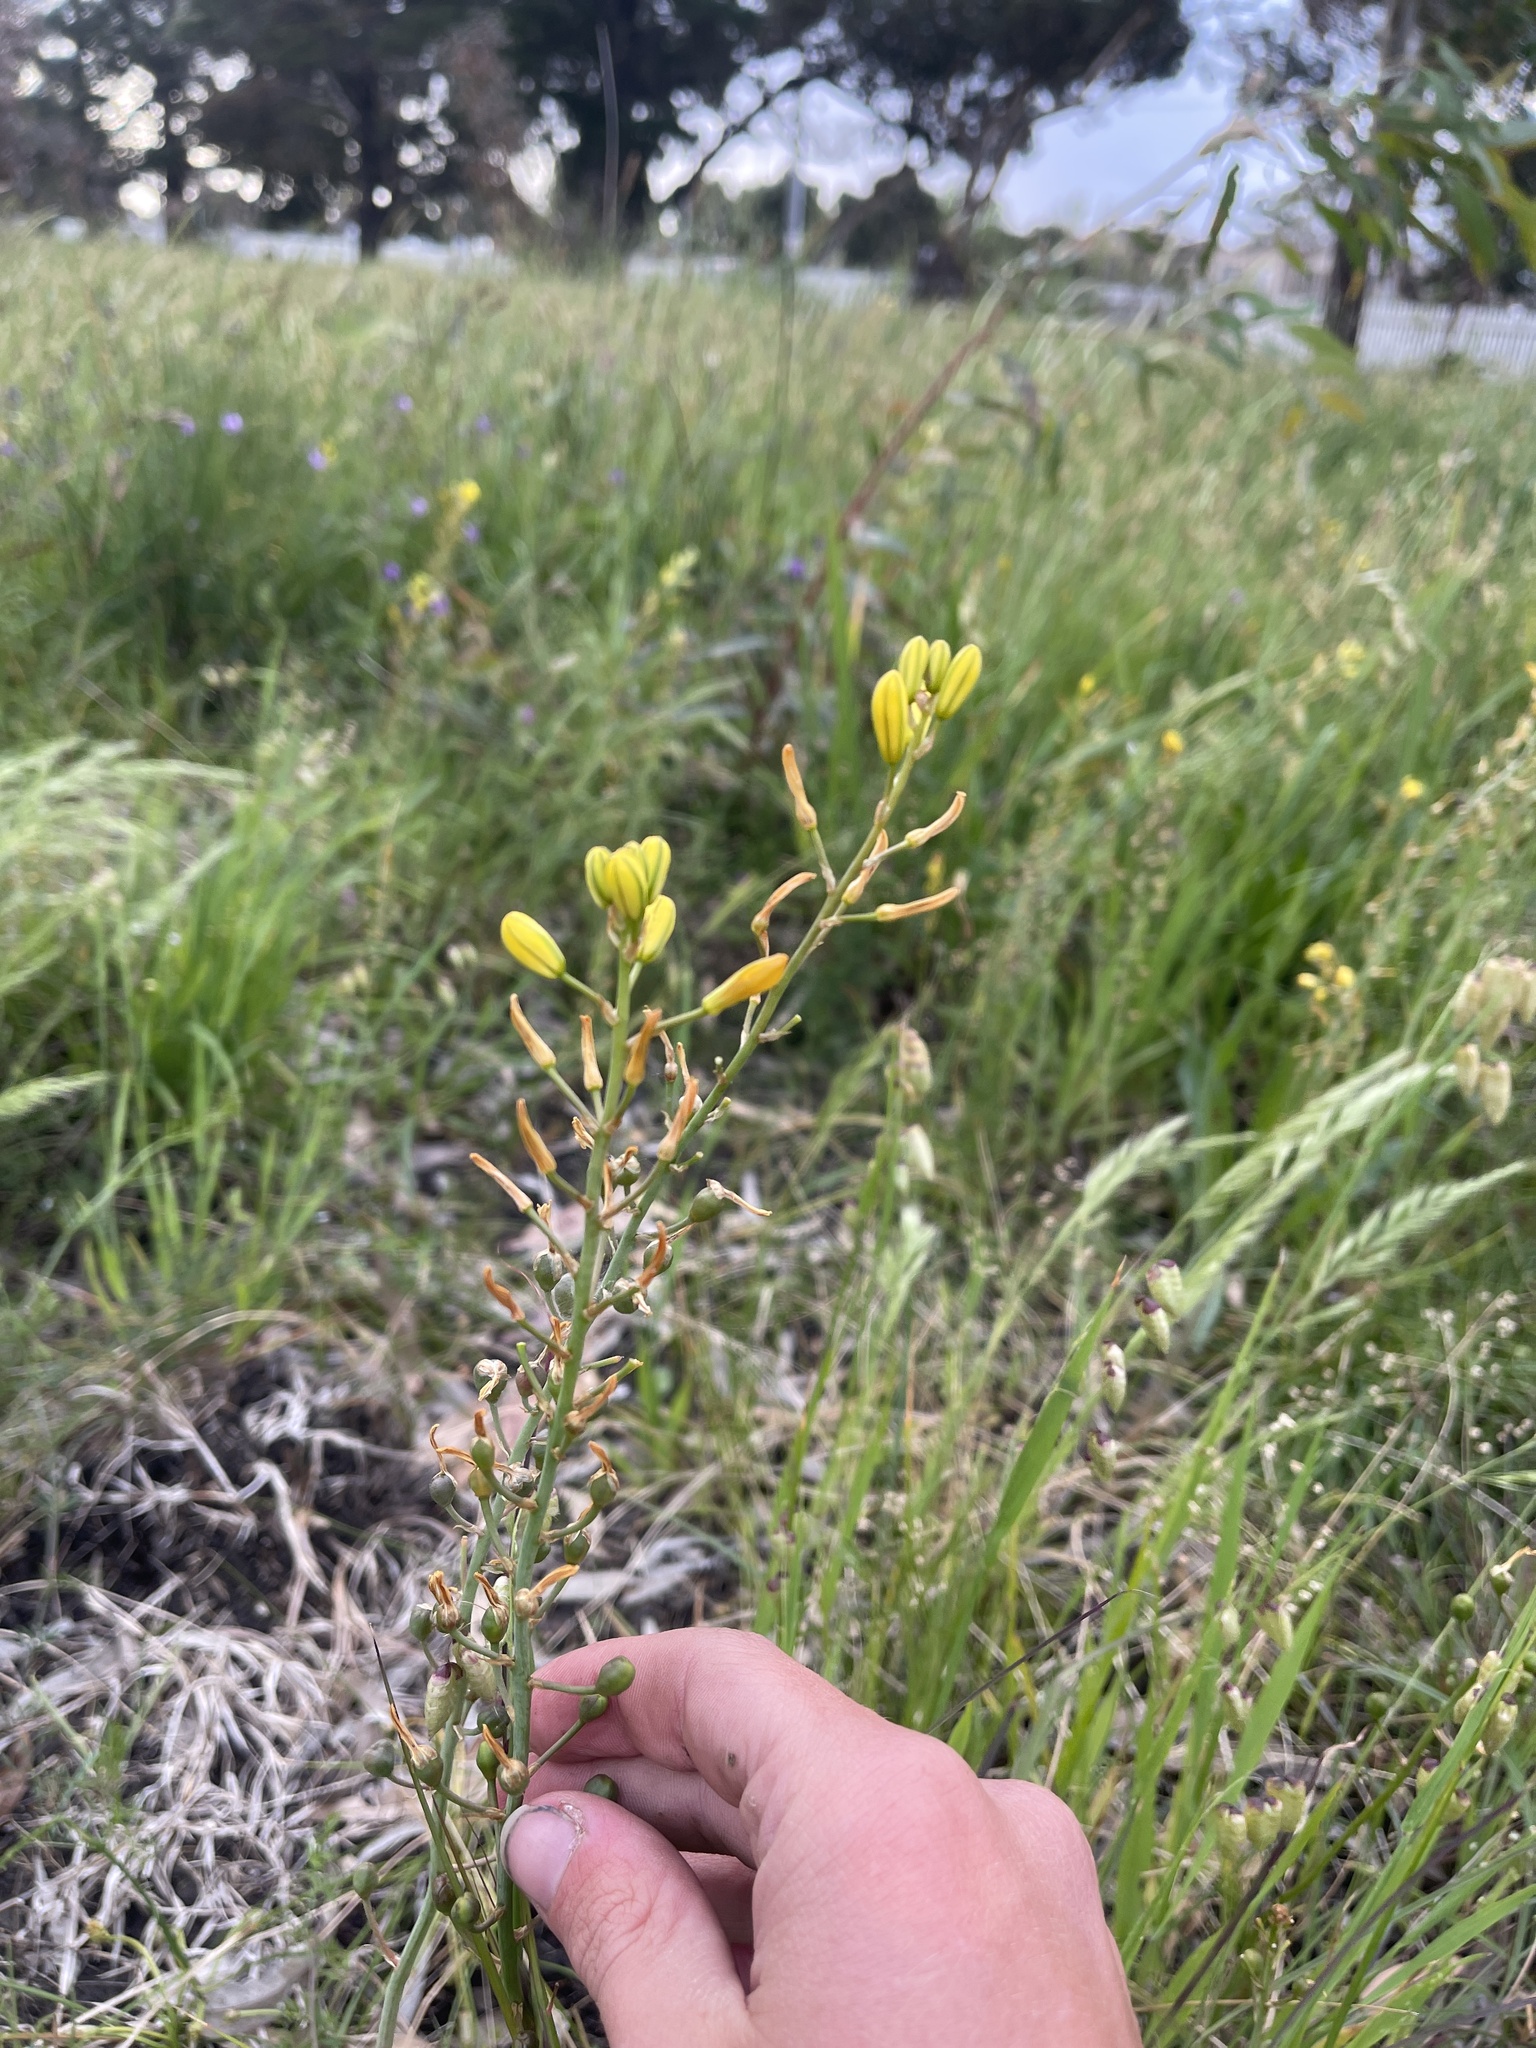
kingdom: Plantae
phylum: Tracheophyta
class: Liliopsida
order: Asparagales
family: Asphodelaceae
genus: Bulbine
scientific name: Bulbine bulbosa
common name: Golden-lily
